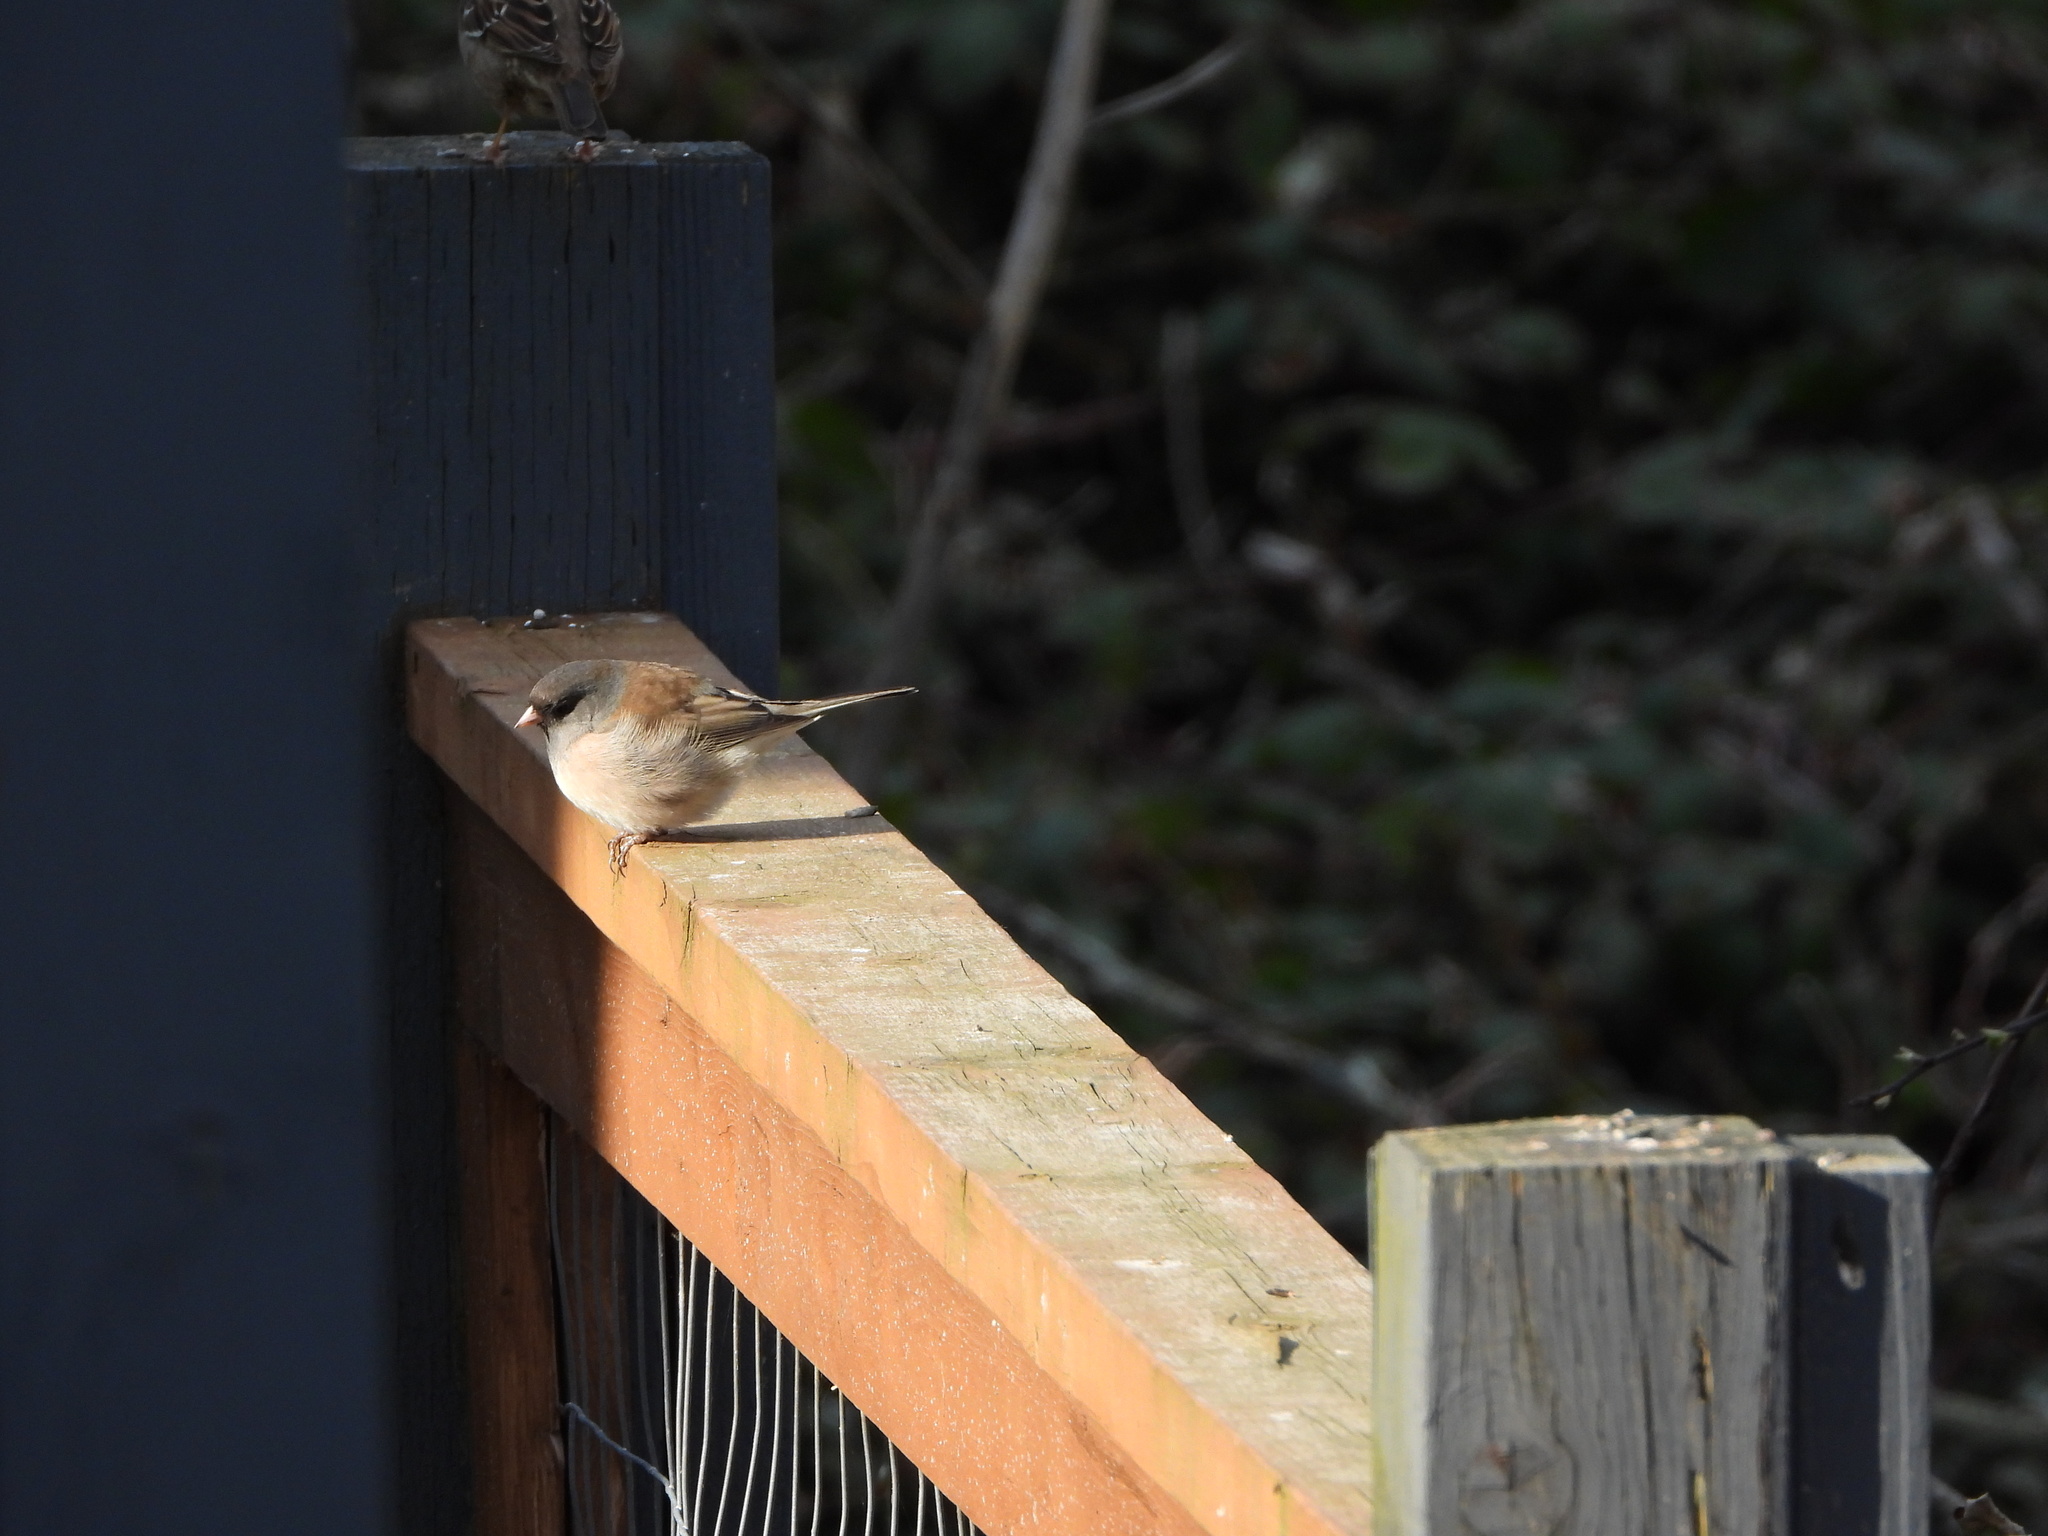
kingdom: Animalia
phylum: Chordata
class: Aves
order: Passeriformes
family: Passerellidae
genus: Junco
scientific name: Junco hyemalis
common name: Dark-eyed junco
